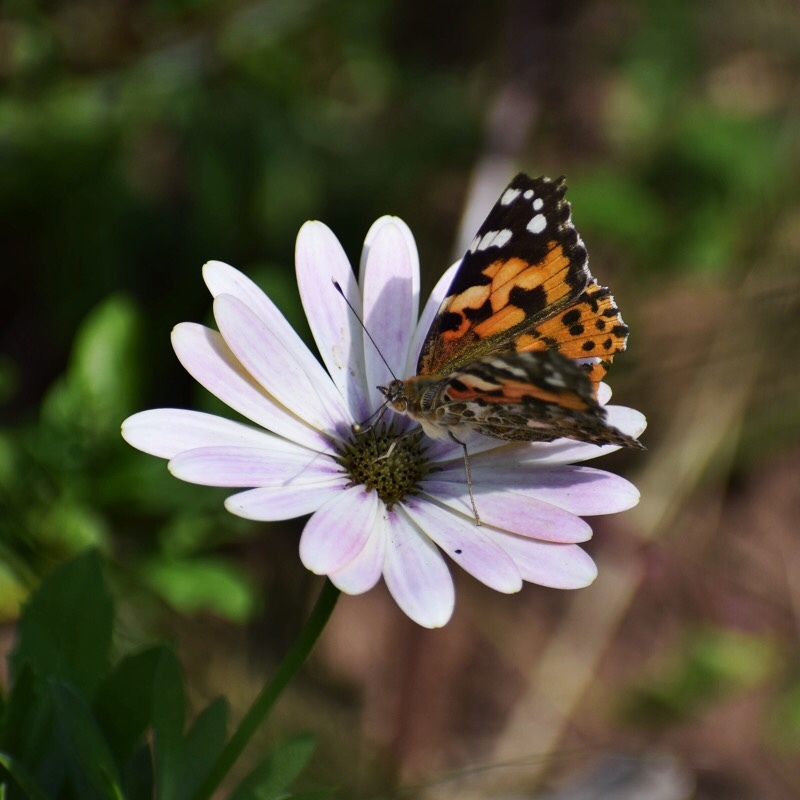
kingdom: Animalia
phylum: Arthropoda
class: Insecta
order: Lepidoptera
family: Nymphalidae
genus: Vanessa
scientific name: Vanessa cardui
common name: Painted lady
